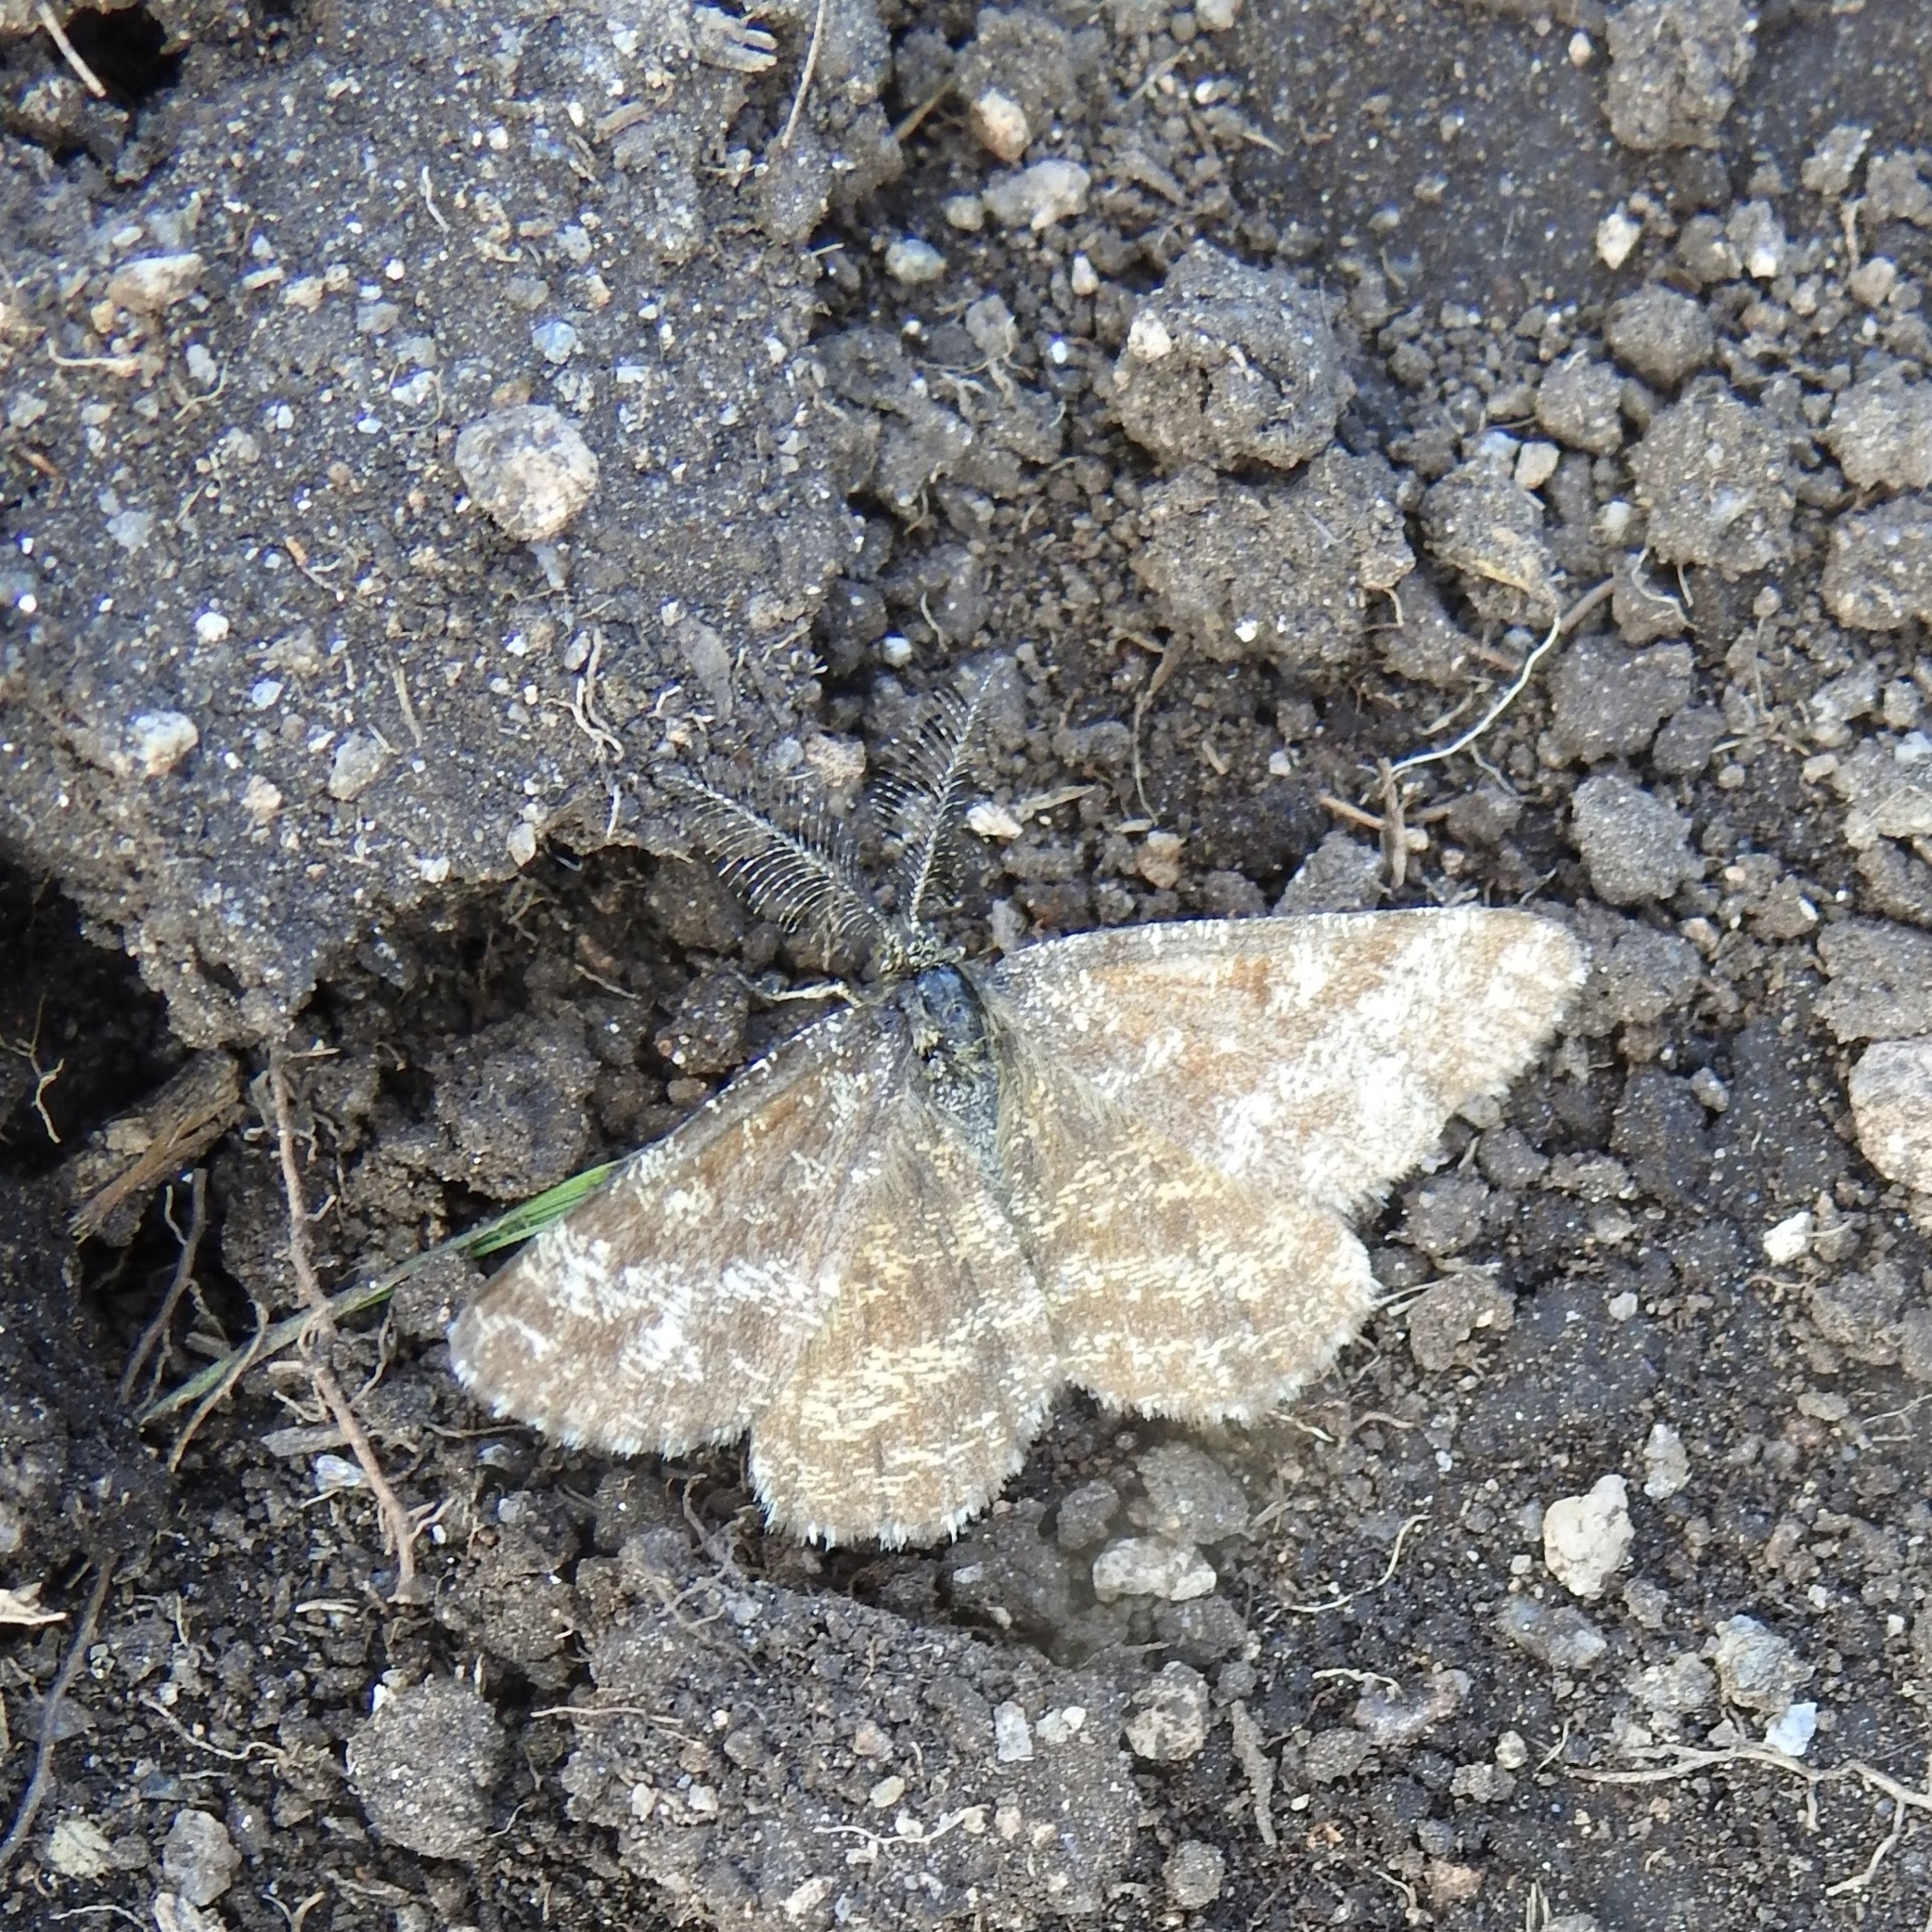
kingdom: Animalia
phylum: Arthropoda
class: Insecta
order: Lepidoptera
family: Geometridae
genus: Ematurga
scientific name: Ematurga atomaria
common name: Common heath
